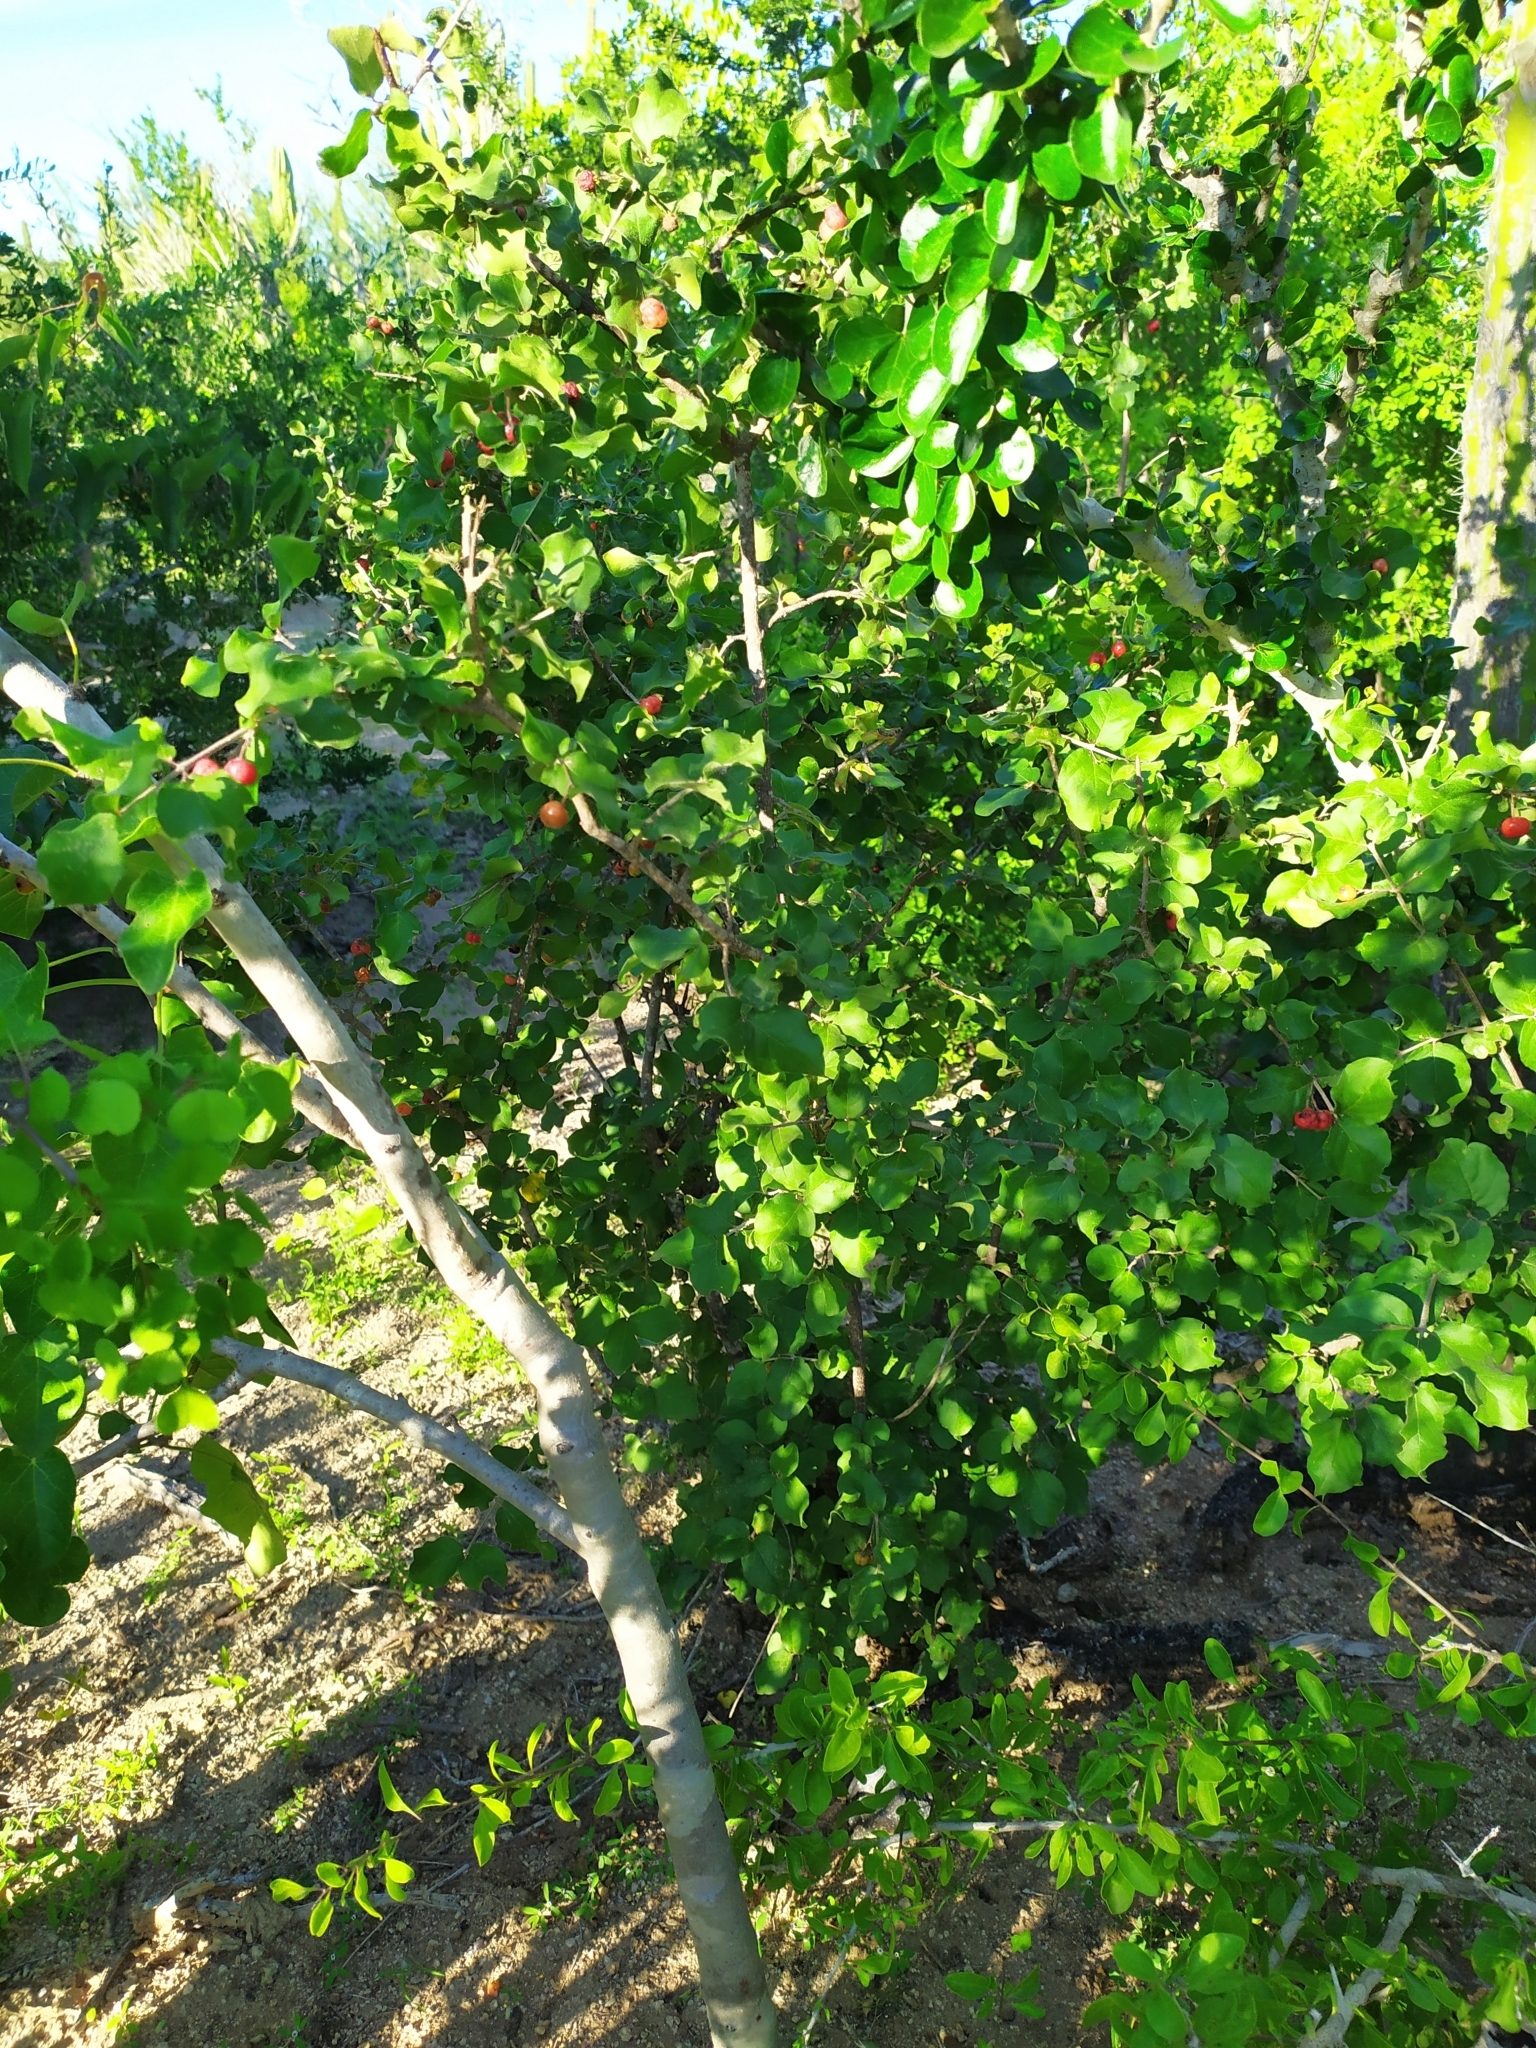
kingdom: Plantae
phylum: Tracheophyta
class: Magnoliopsida
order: Malpighiales
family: Malpighiaceae
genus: Malpighia
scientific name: Malpighia diversifolia
